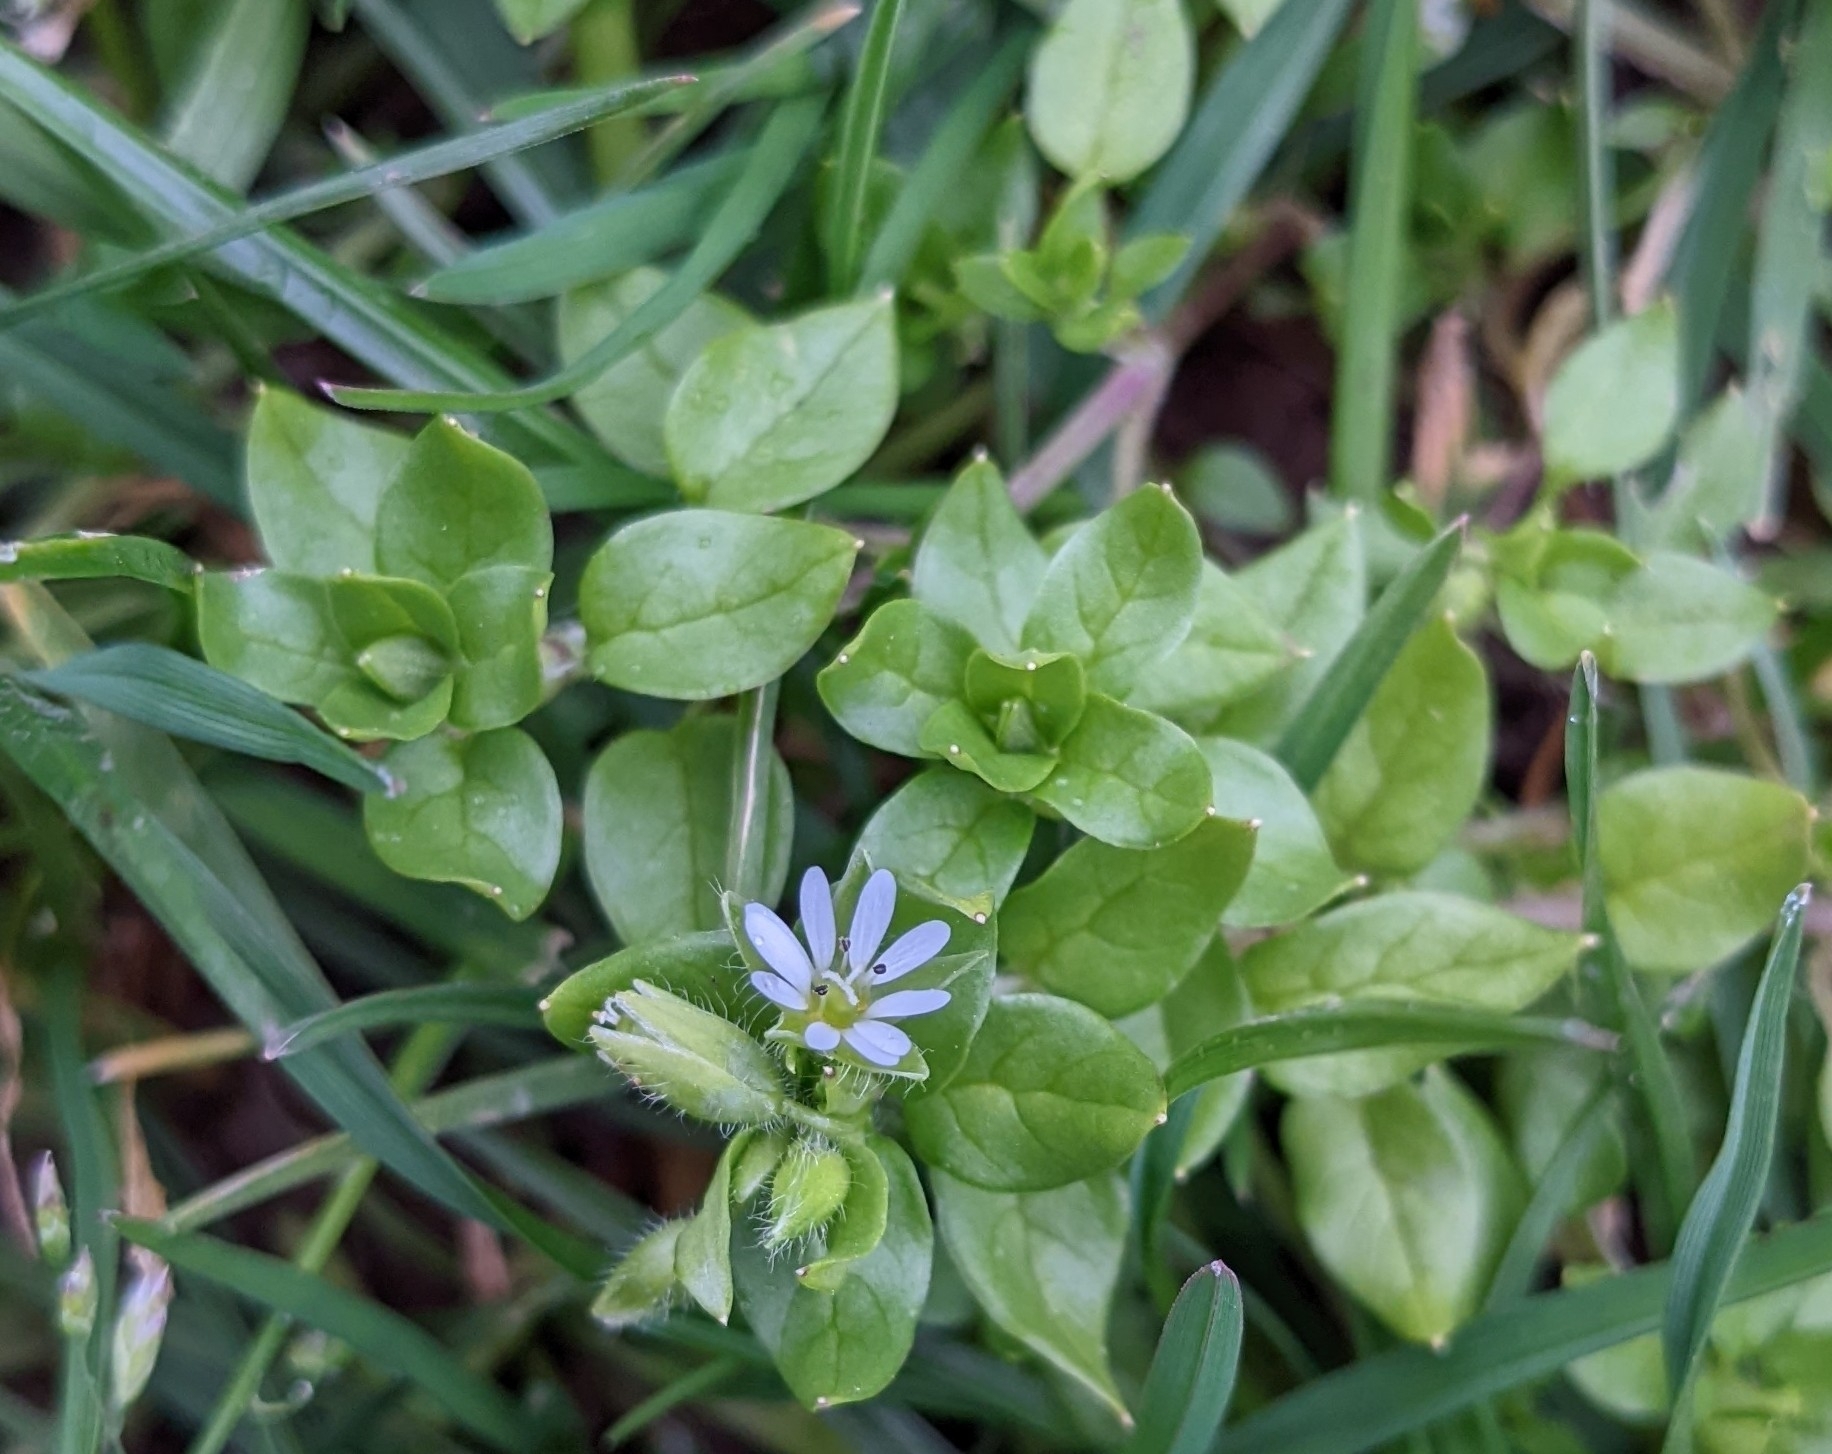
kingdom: Plantae
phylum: Tracheophyta
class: Magnoliopsida
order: Caryophyllales
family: Caryophyllaceae
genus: Stellaria
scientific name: Stellaria media
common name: Common chickweed
